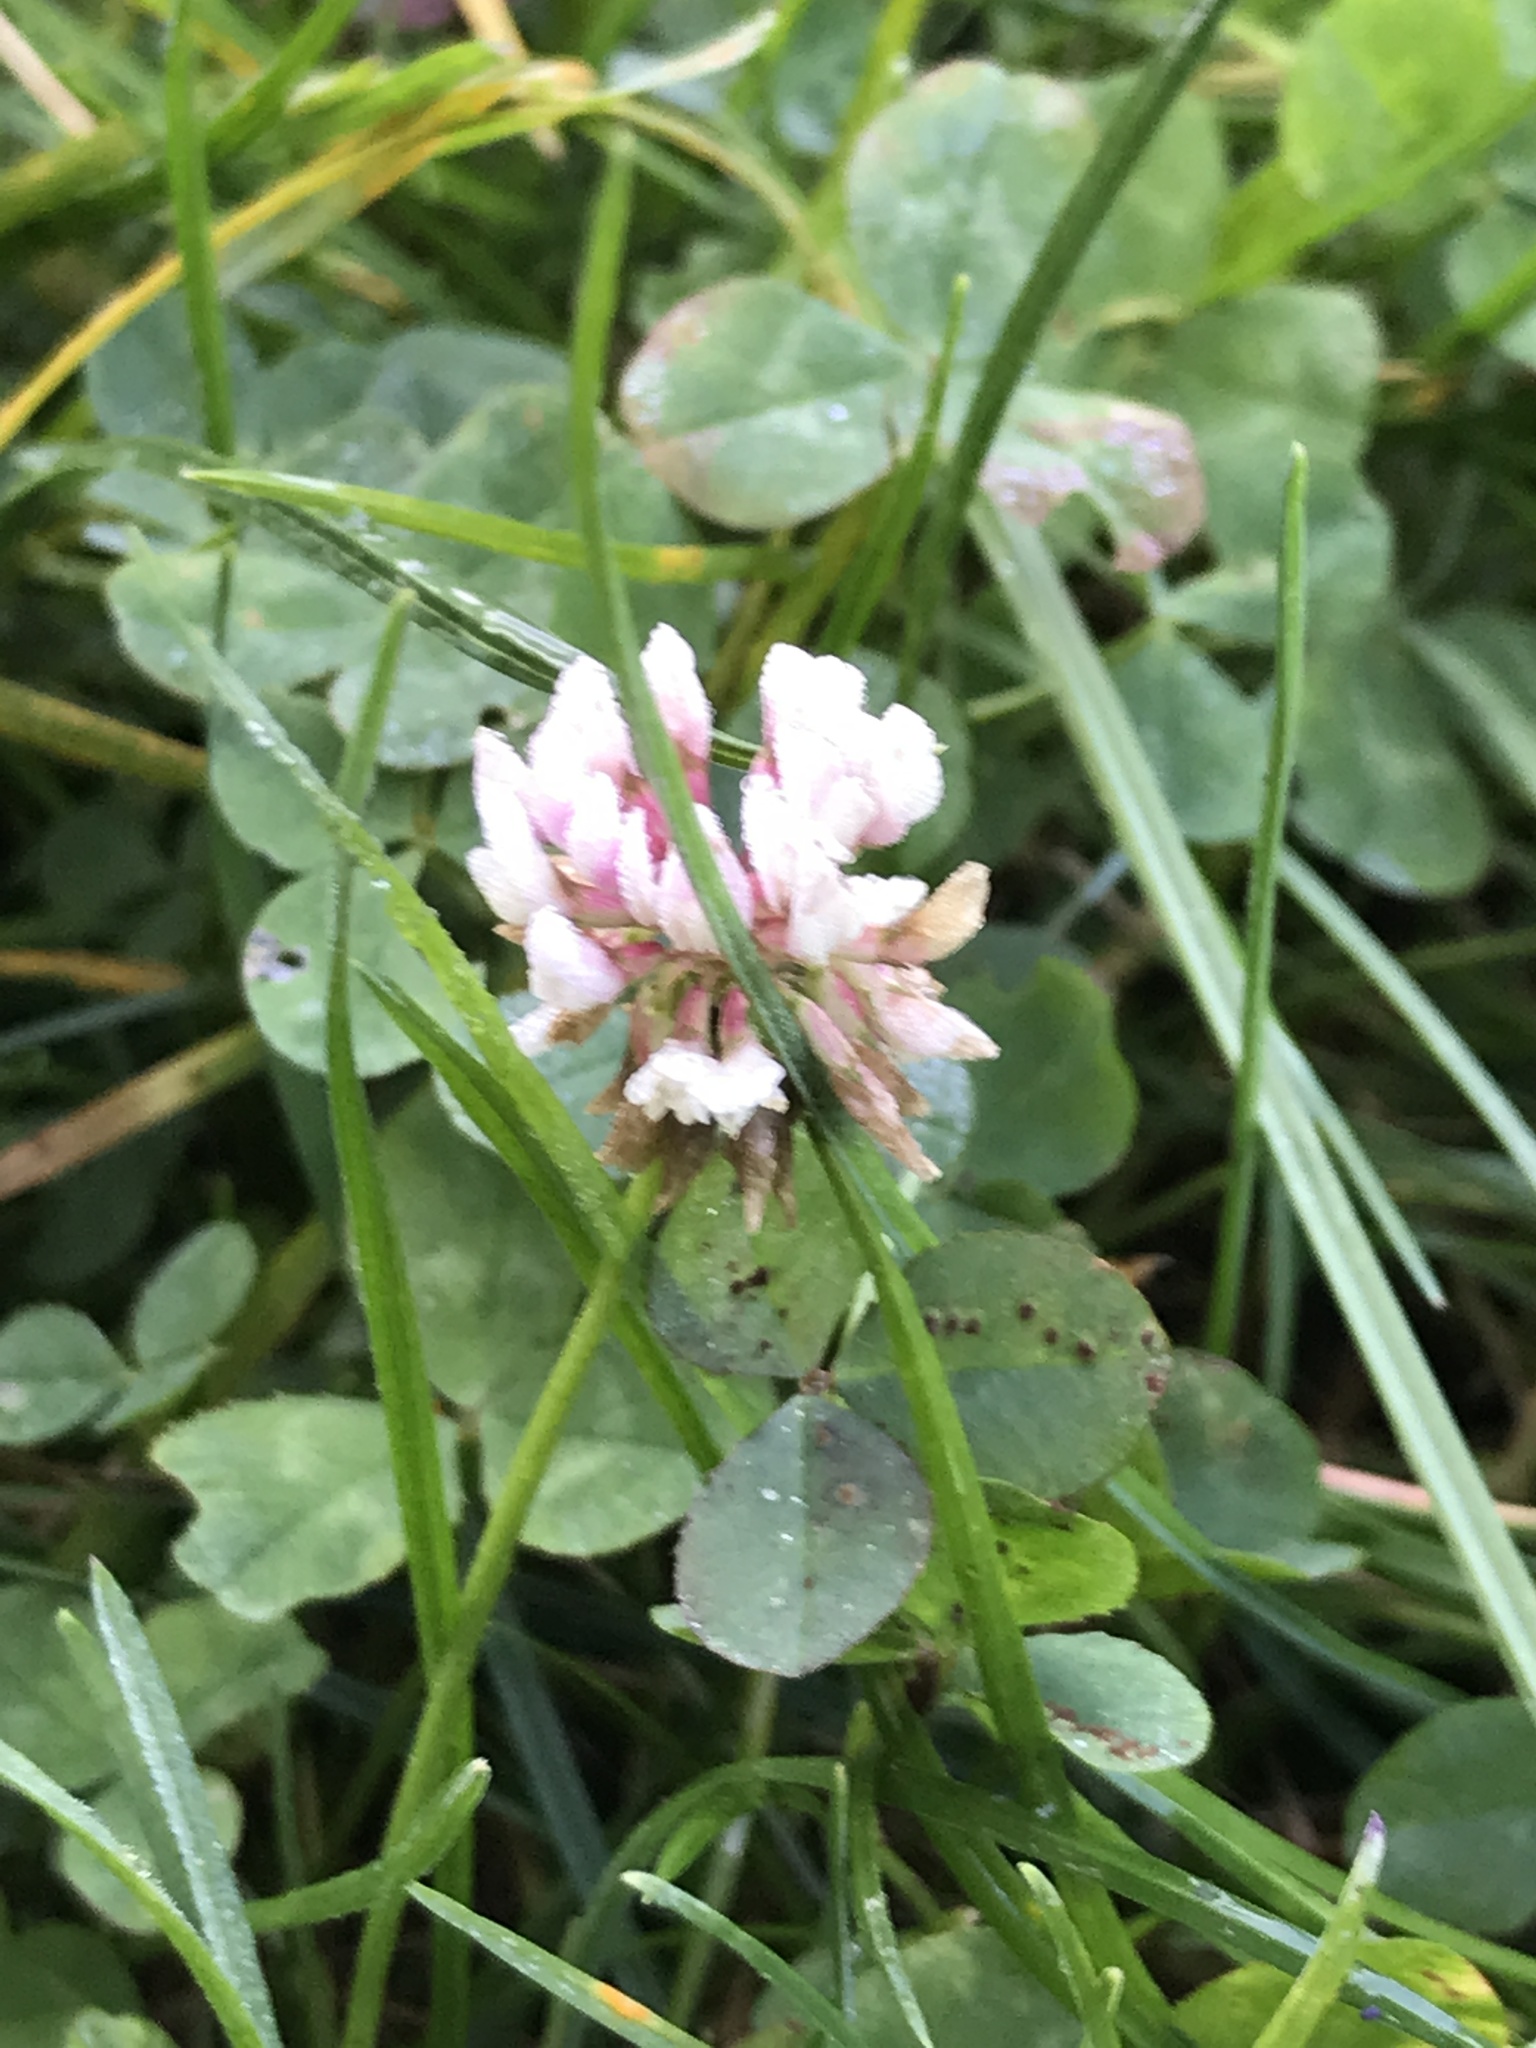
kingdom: Plantae
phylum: Tracheophyta
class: Magnoliopsida
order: Fabales
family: Fabaceae
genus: Trifolium
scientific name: Trifolium repens
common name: White clover
